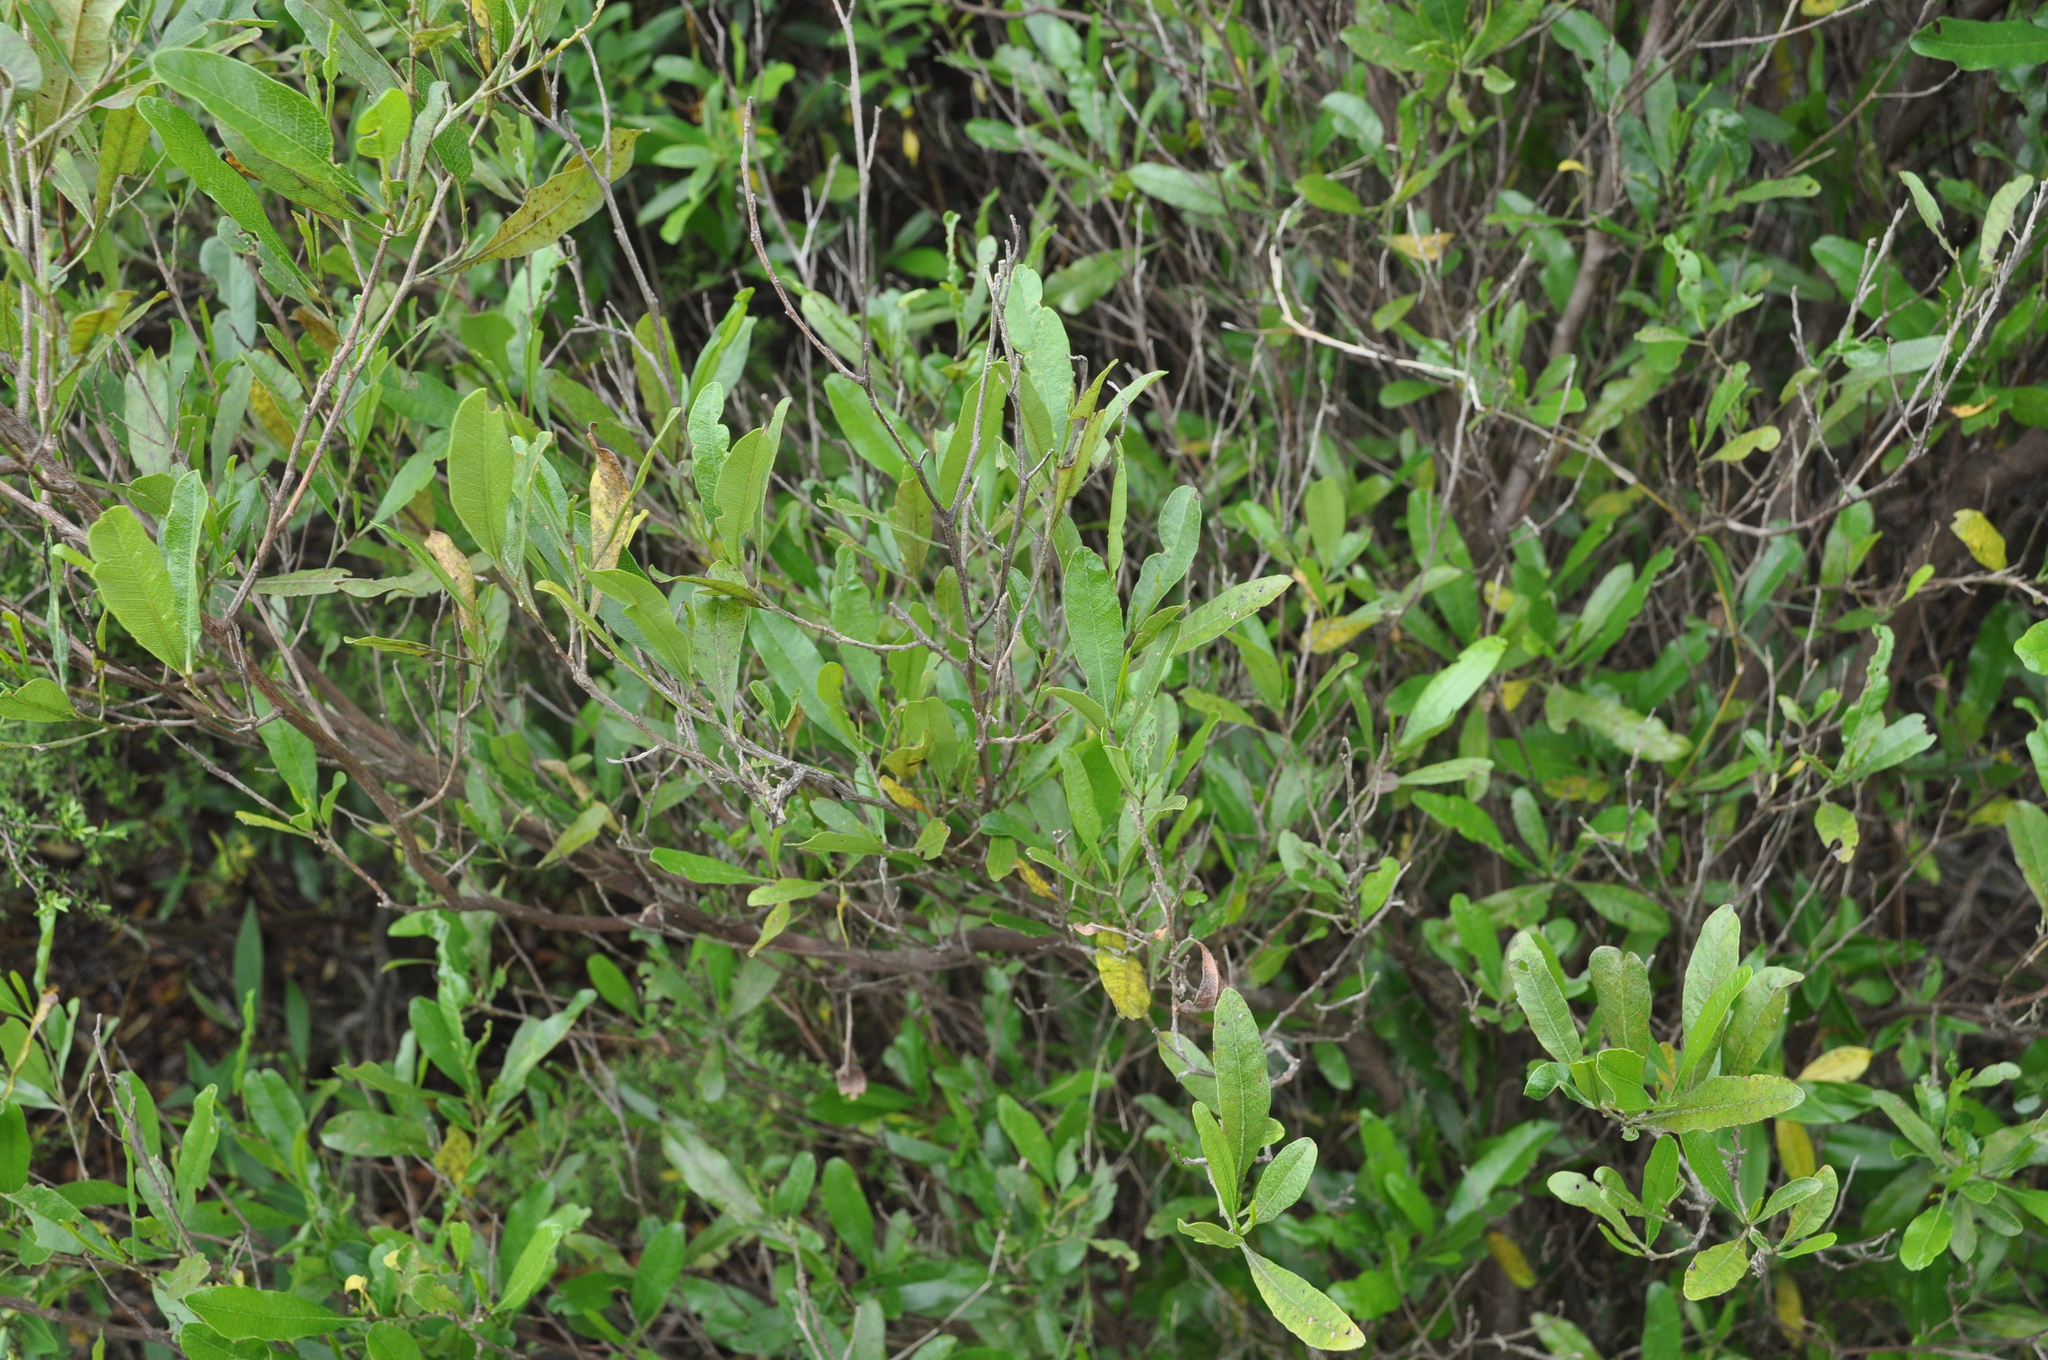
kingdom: Plantae
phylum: Tracheophyta
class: Magnoliopsida
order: Sapindales
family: Sapindaceae
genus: Dodonaea
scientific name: Dodonaea viscosa
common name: Hopbush
